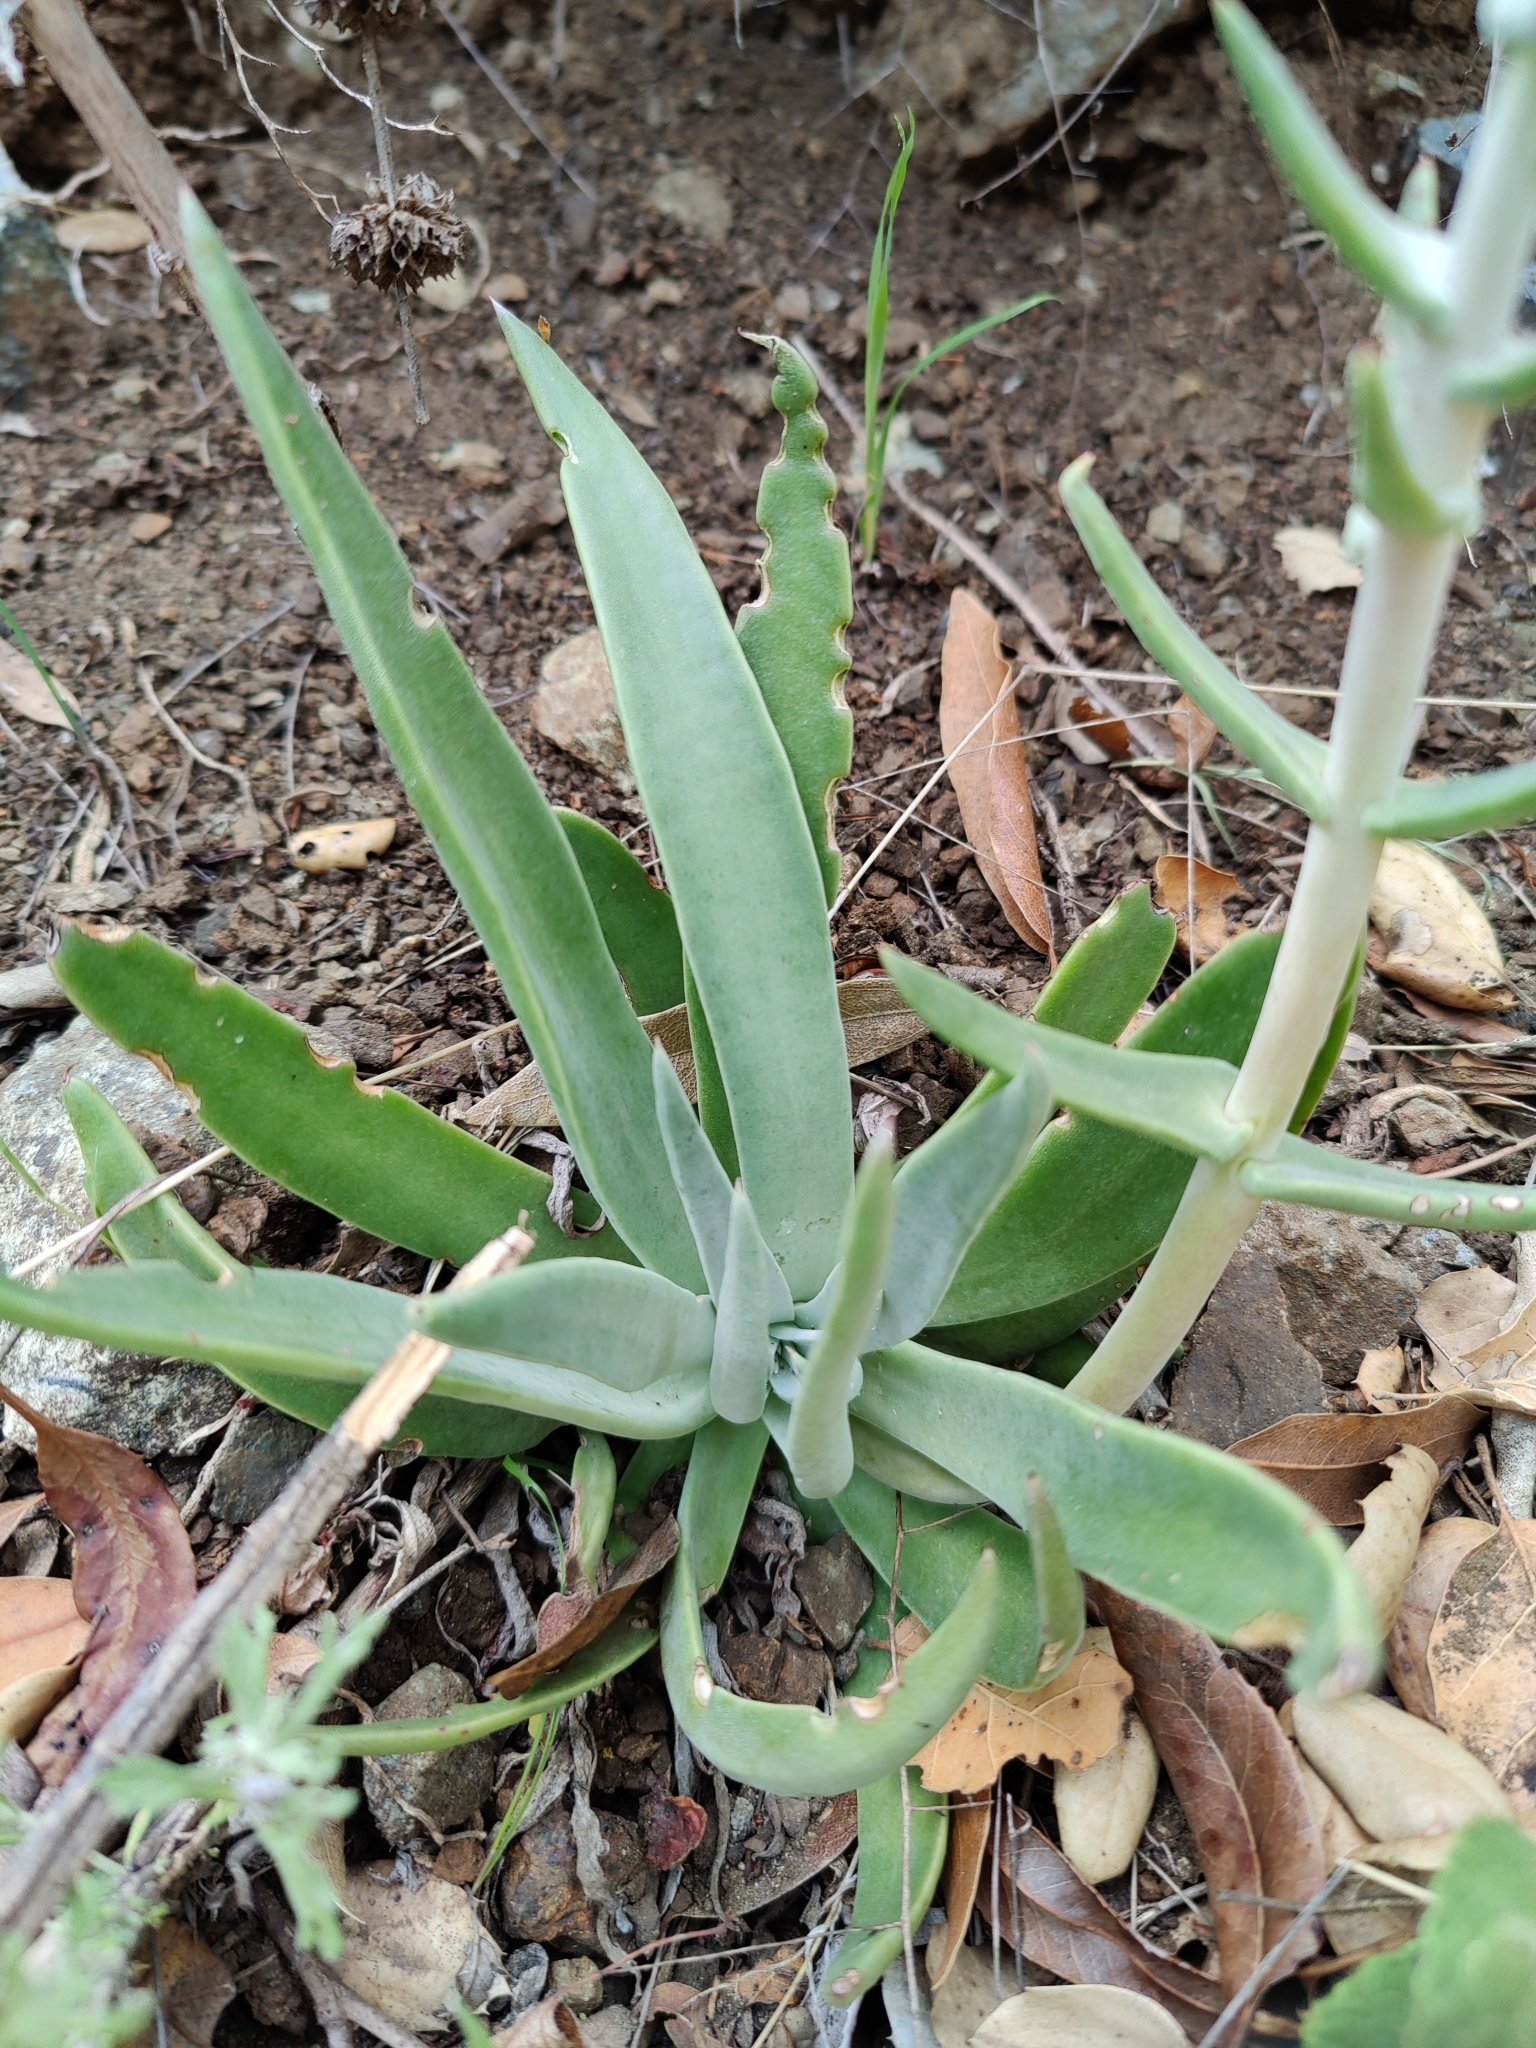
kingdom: Plantae
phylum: Tracheophyta
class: Magnoliopsida
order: Saxifragales
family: Crassulaceae
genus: Dudleya
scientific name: Dudleya lanceolata
